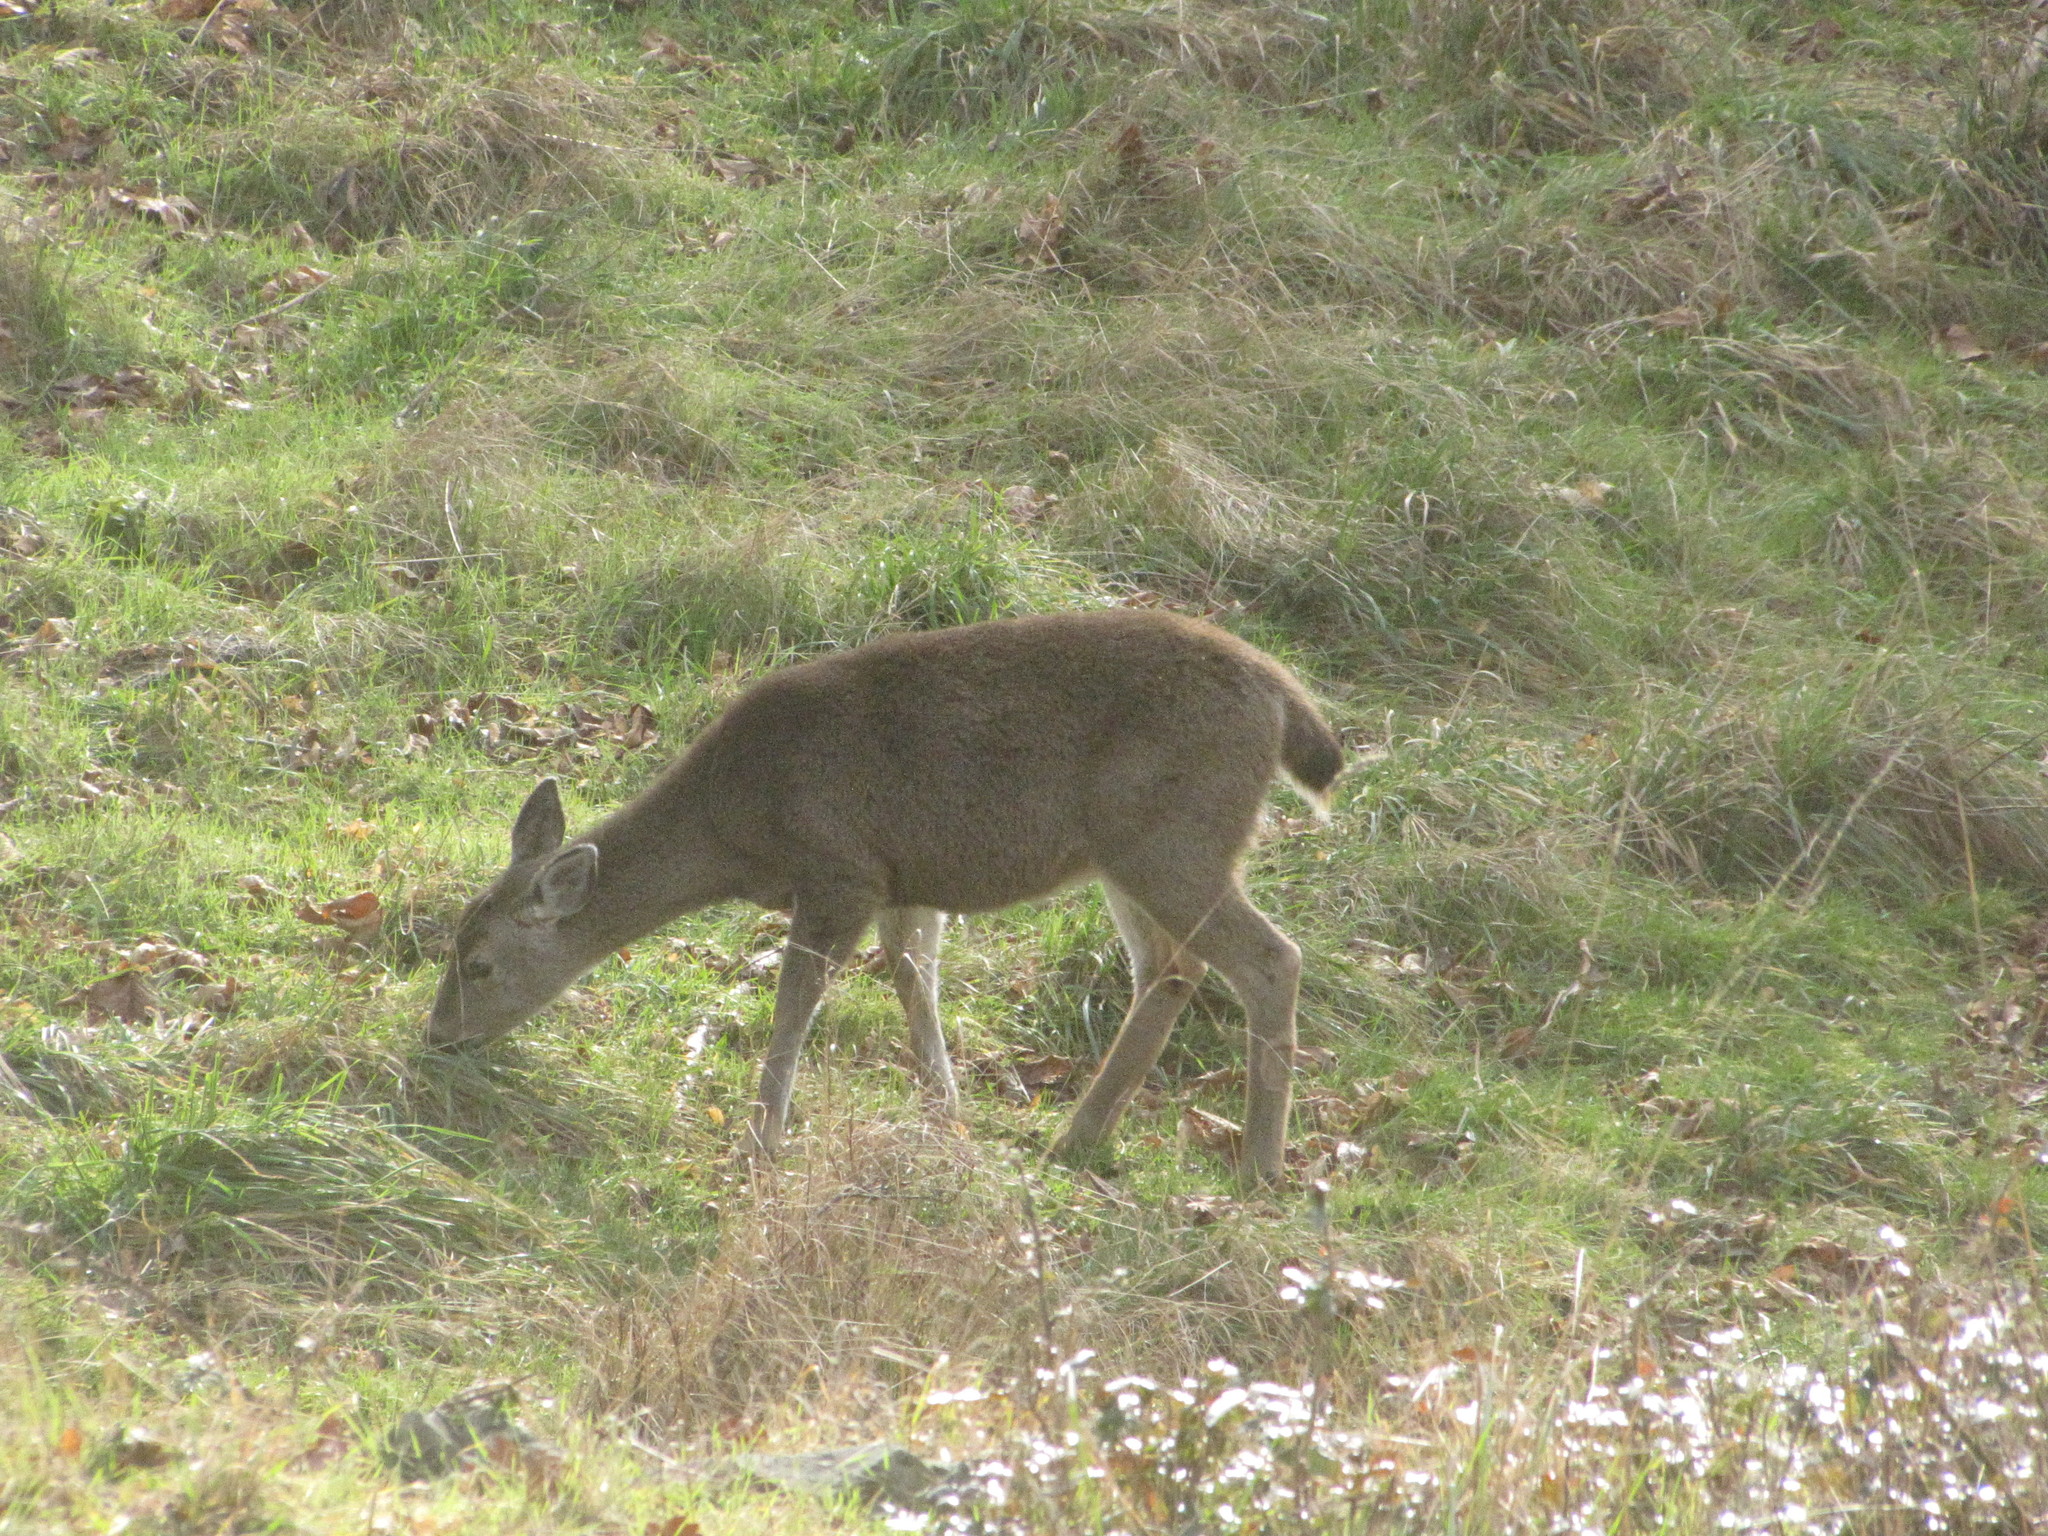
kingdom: Animalia
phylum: Chordata
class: Mammalia
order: Artiodactyla
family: Cervidae
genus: Odocoileus
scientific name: Odocoileus hemionus
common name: Mule deer
